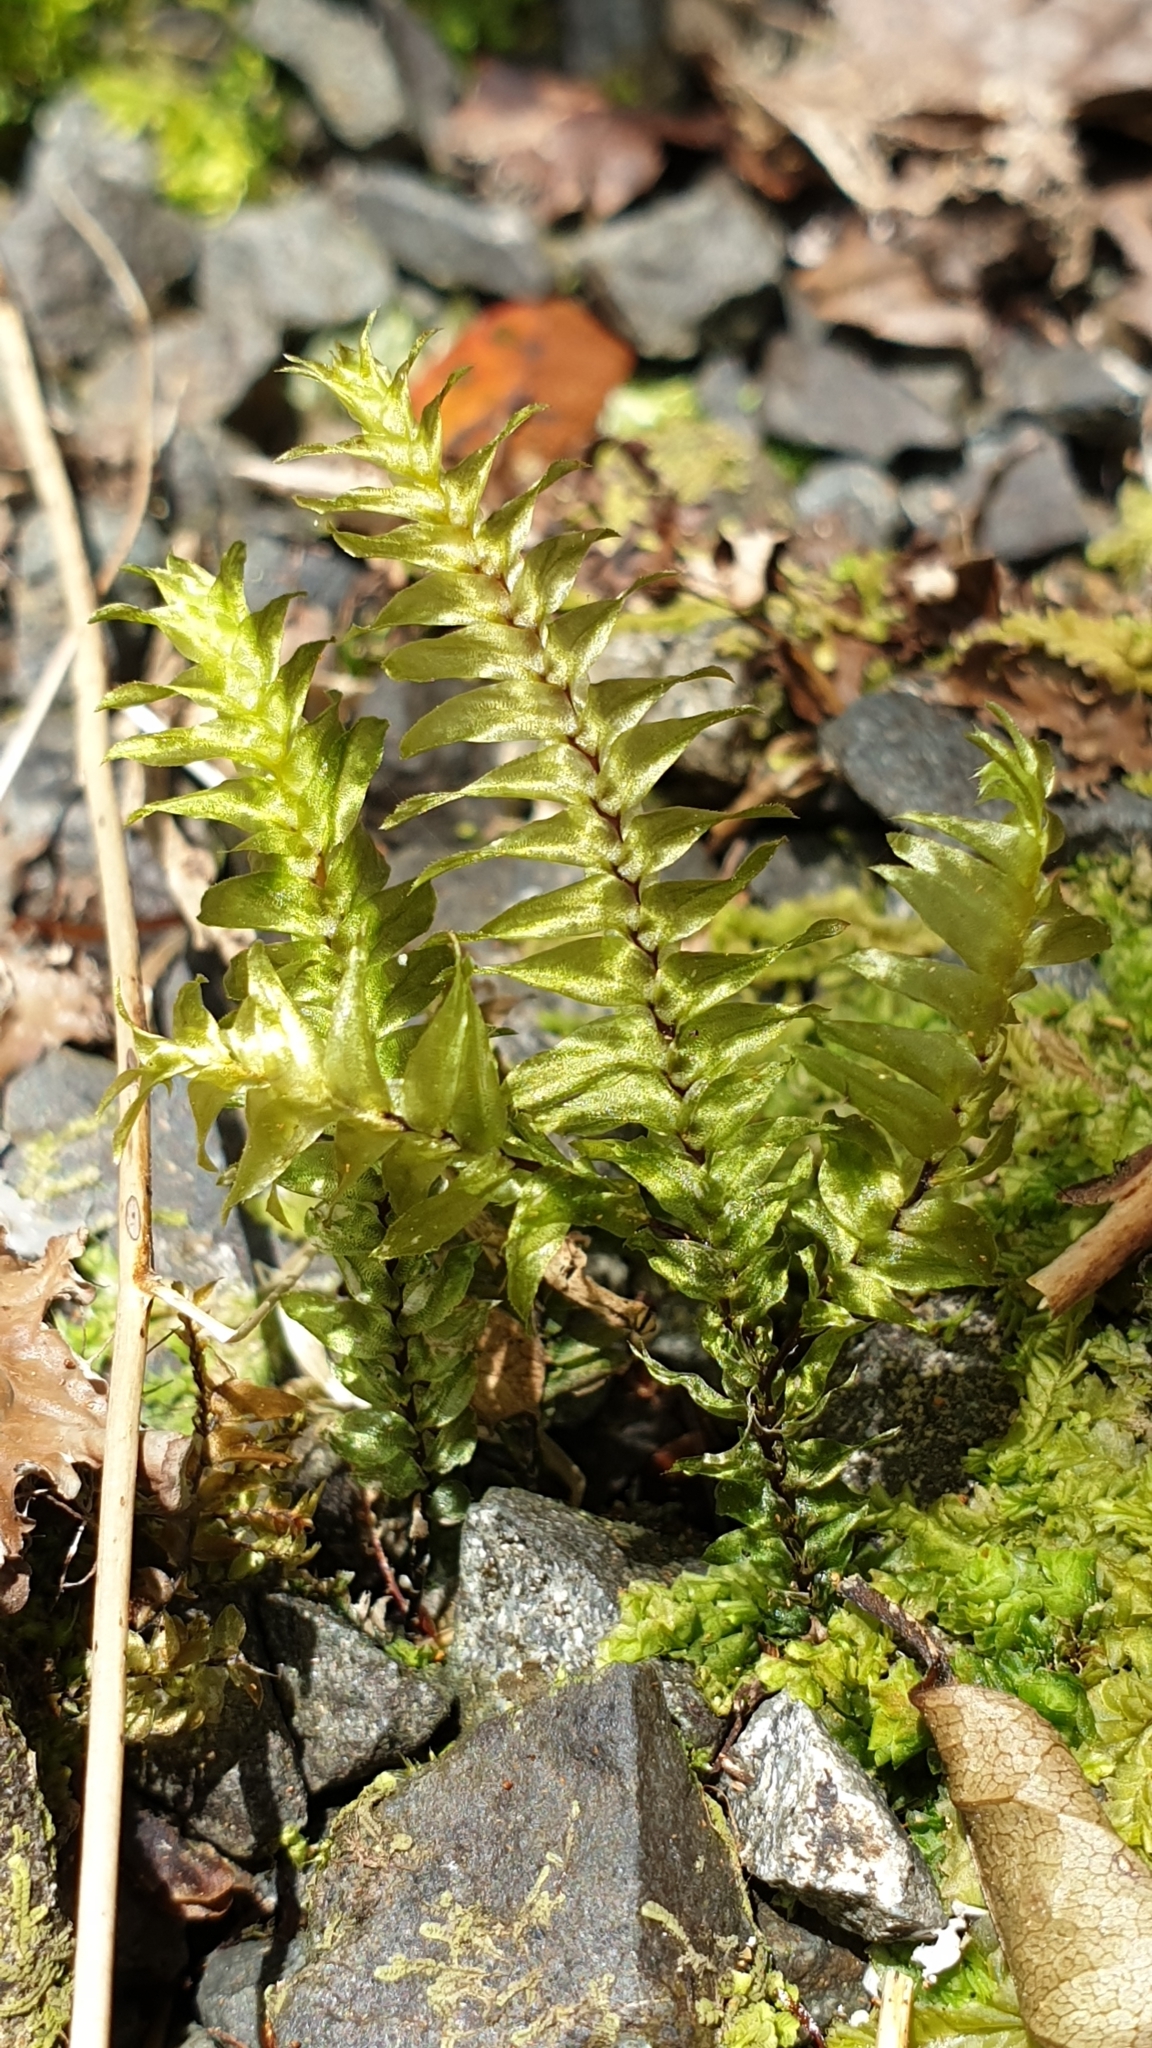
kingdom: Plantae
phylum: Bryophyta
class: Bryopsida
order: Hypopterygiales
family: Hypopterygiaceae
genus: Cyathophorum
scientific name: Cyathophorum bulbosum
